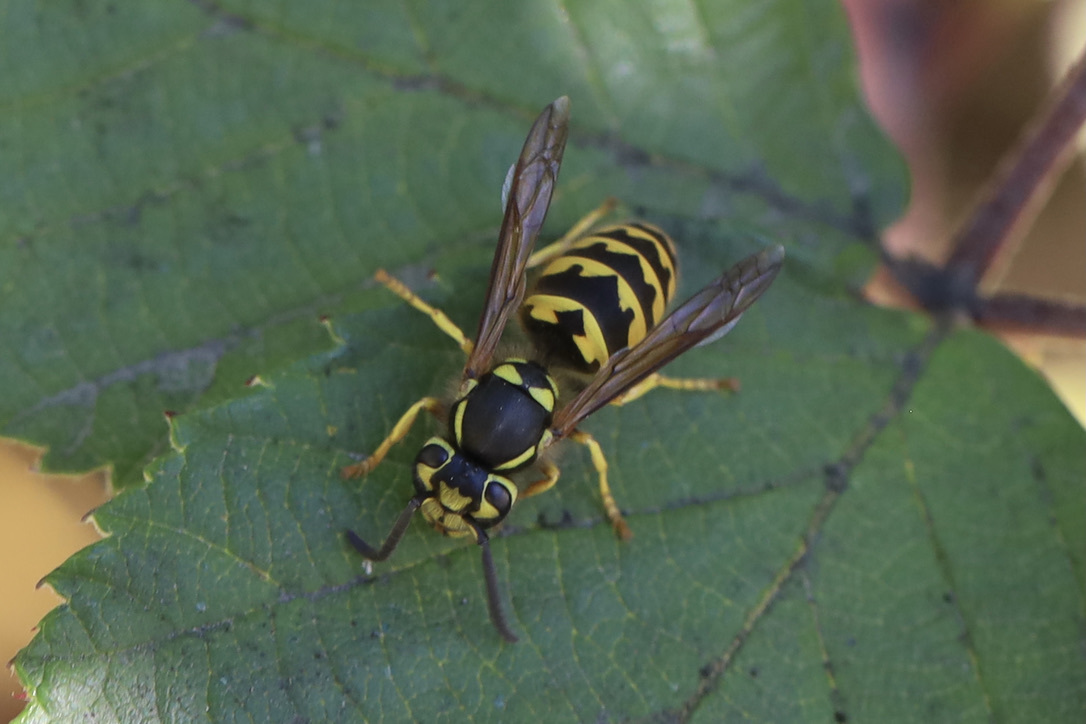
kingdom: Animalia
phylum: Arthropoda
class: Insecta
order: Hymenoptera
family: Vespidae
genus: Vespula
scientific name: Vespula pensylvanica
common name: Western yellowjacket
